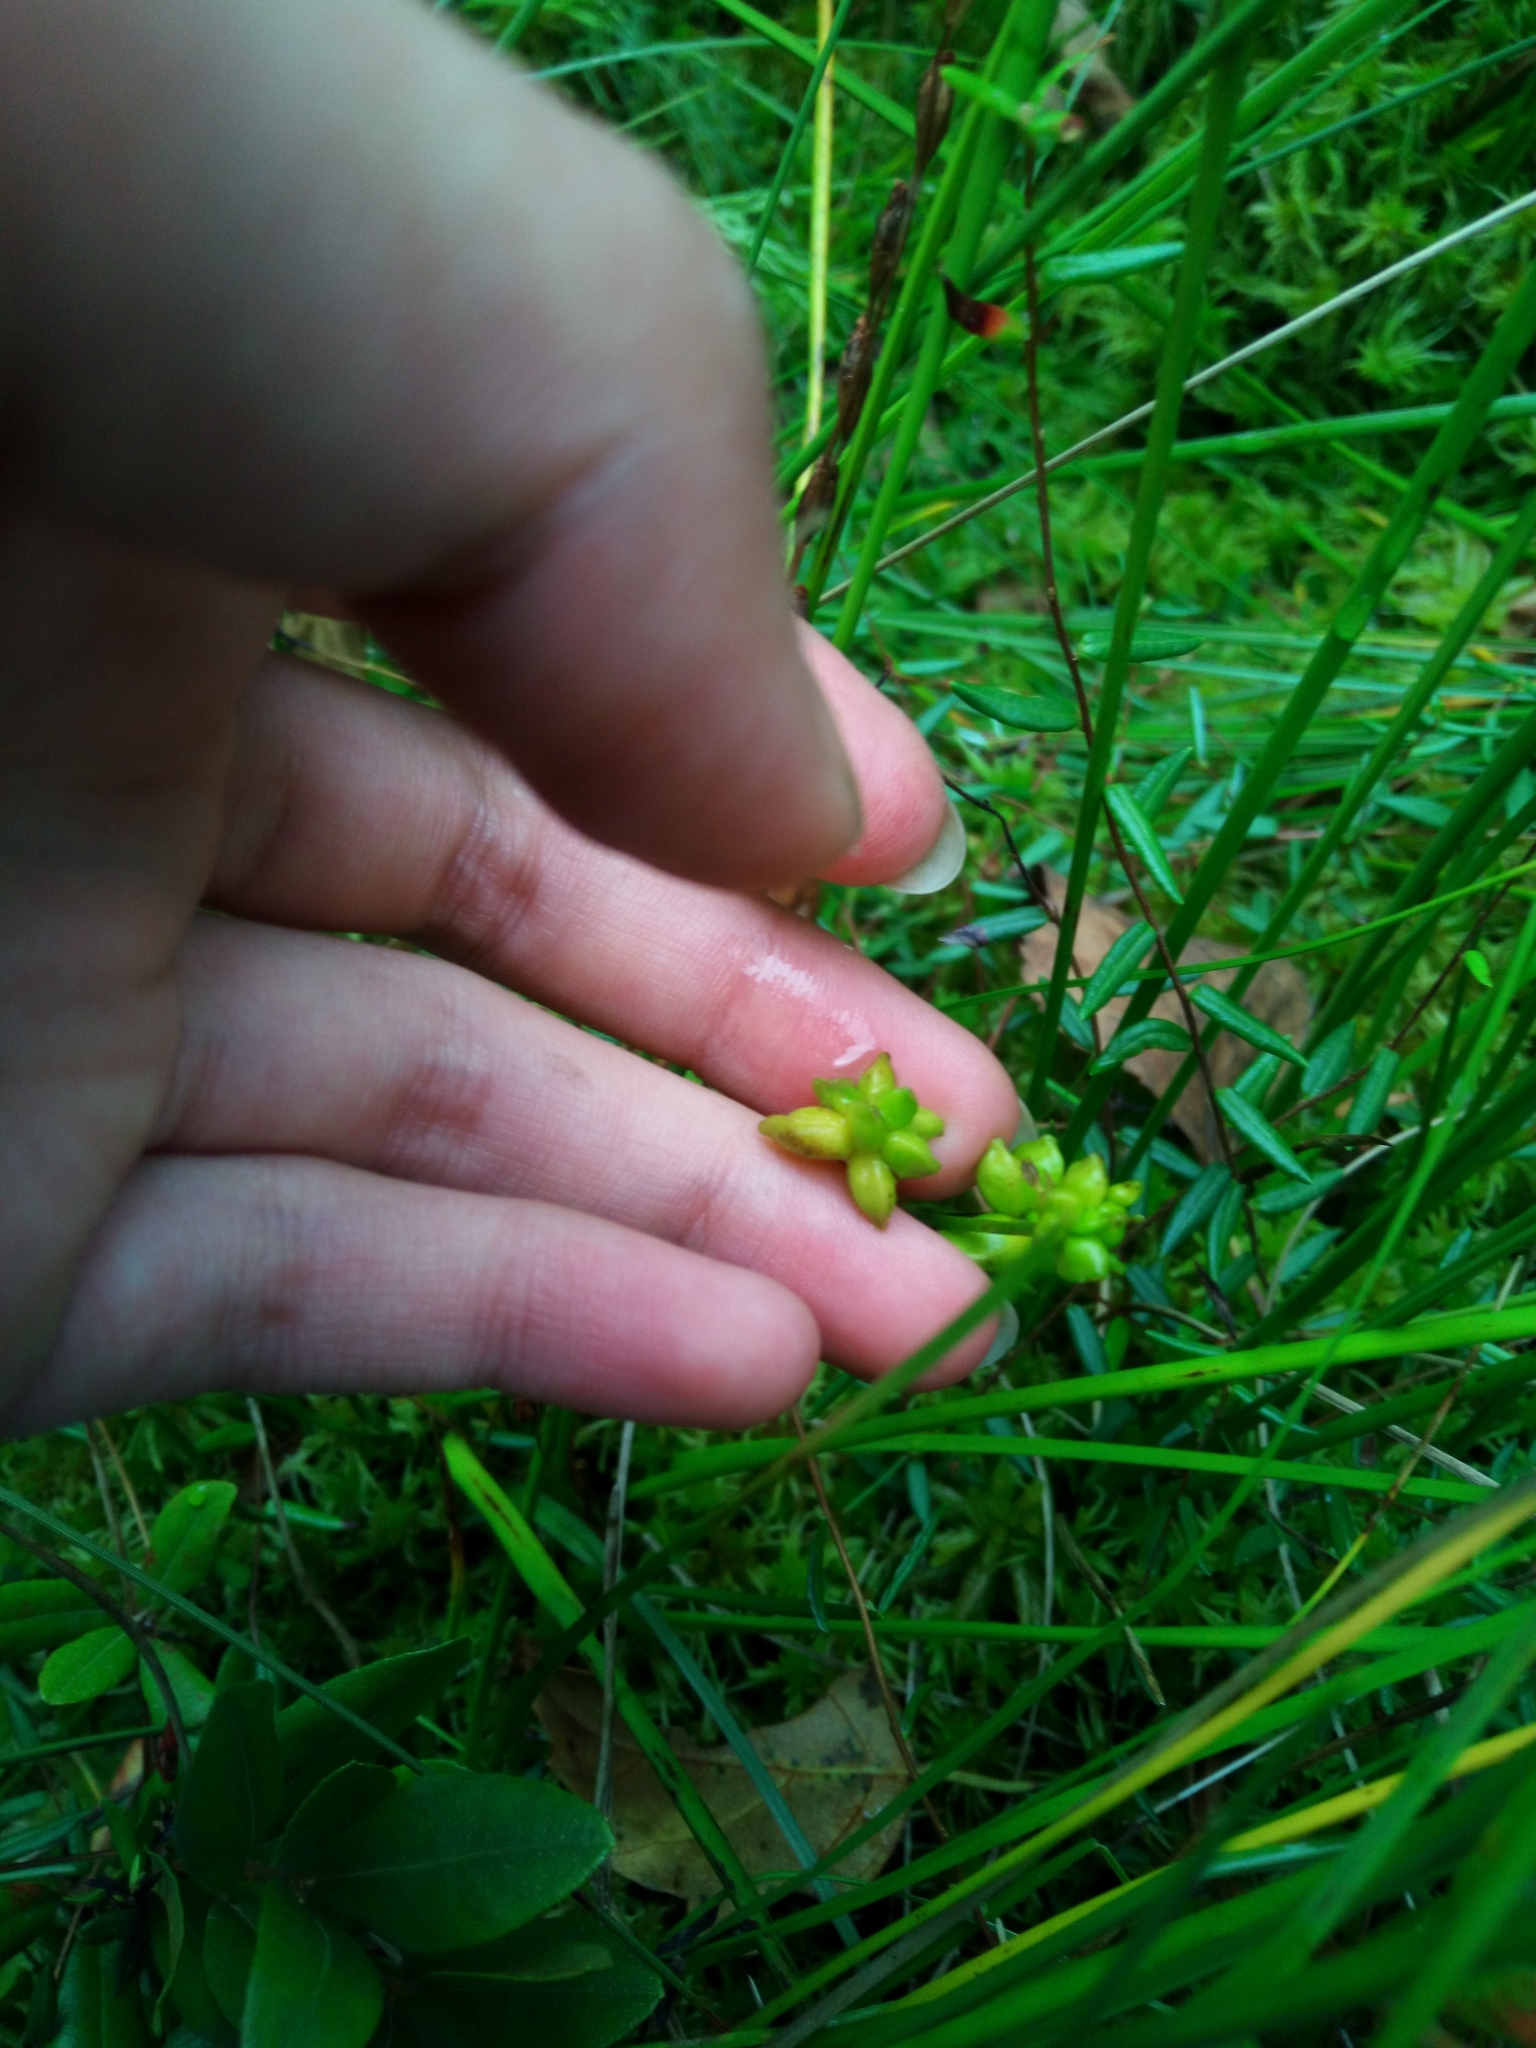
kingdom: Plantae
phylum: Tracheophyta
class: Liliopsida
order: Alismatales
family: Scheuchzeriaceae
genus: Scheuchzeria
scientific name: Scheuchzeria palustris
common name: Rannoch-rush
